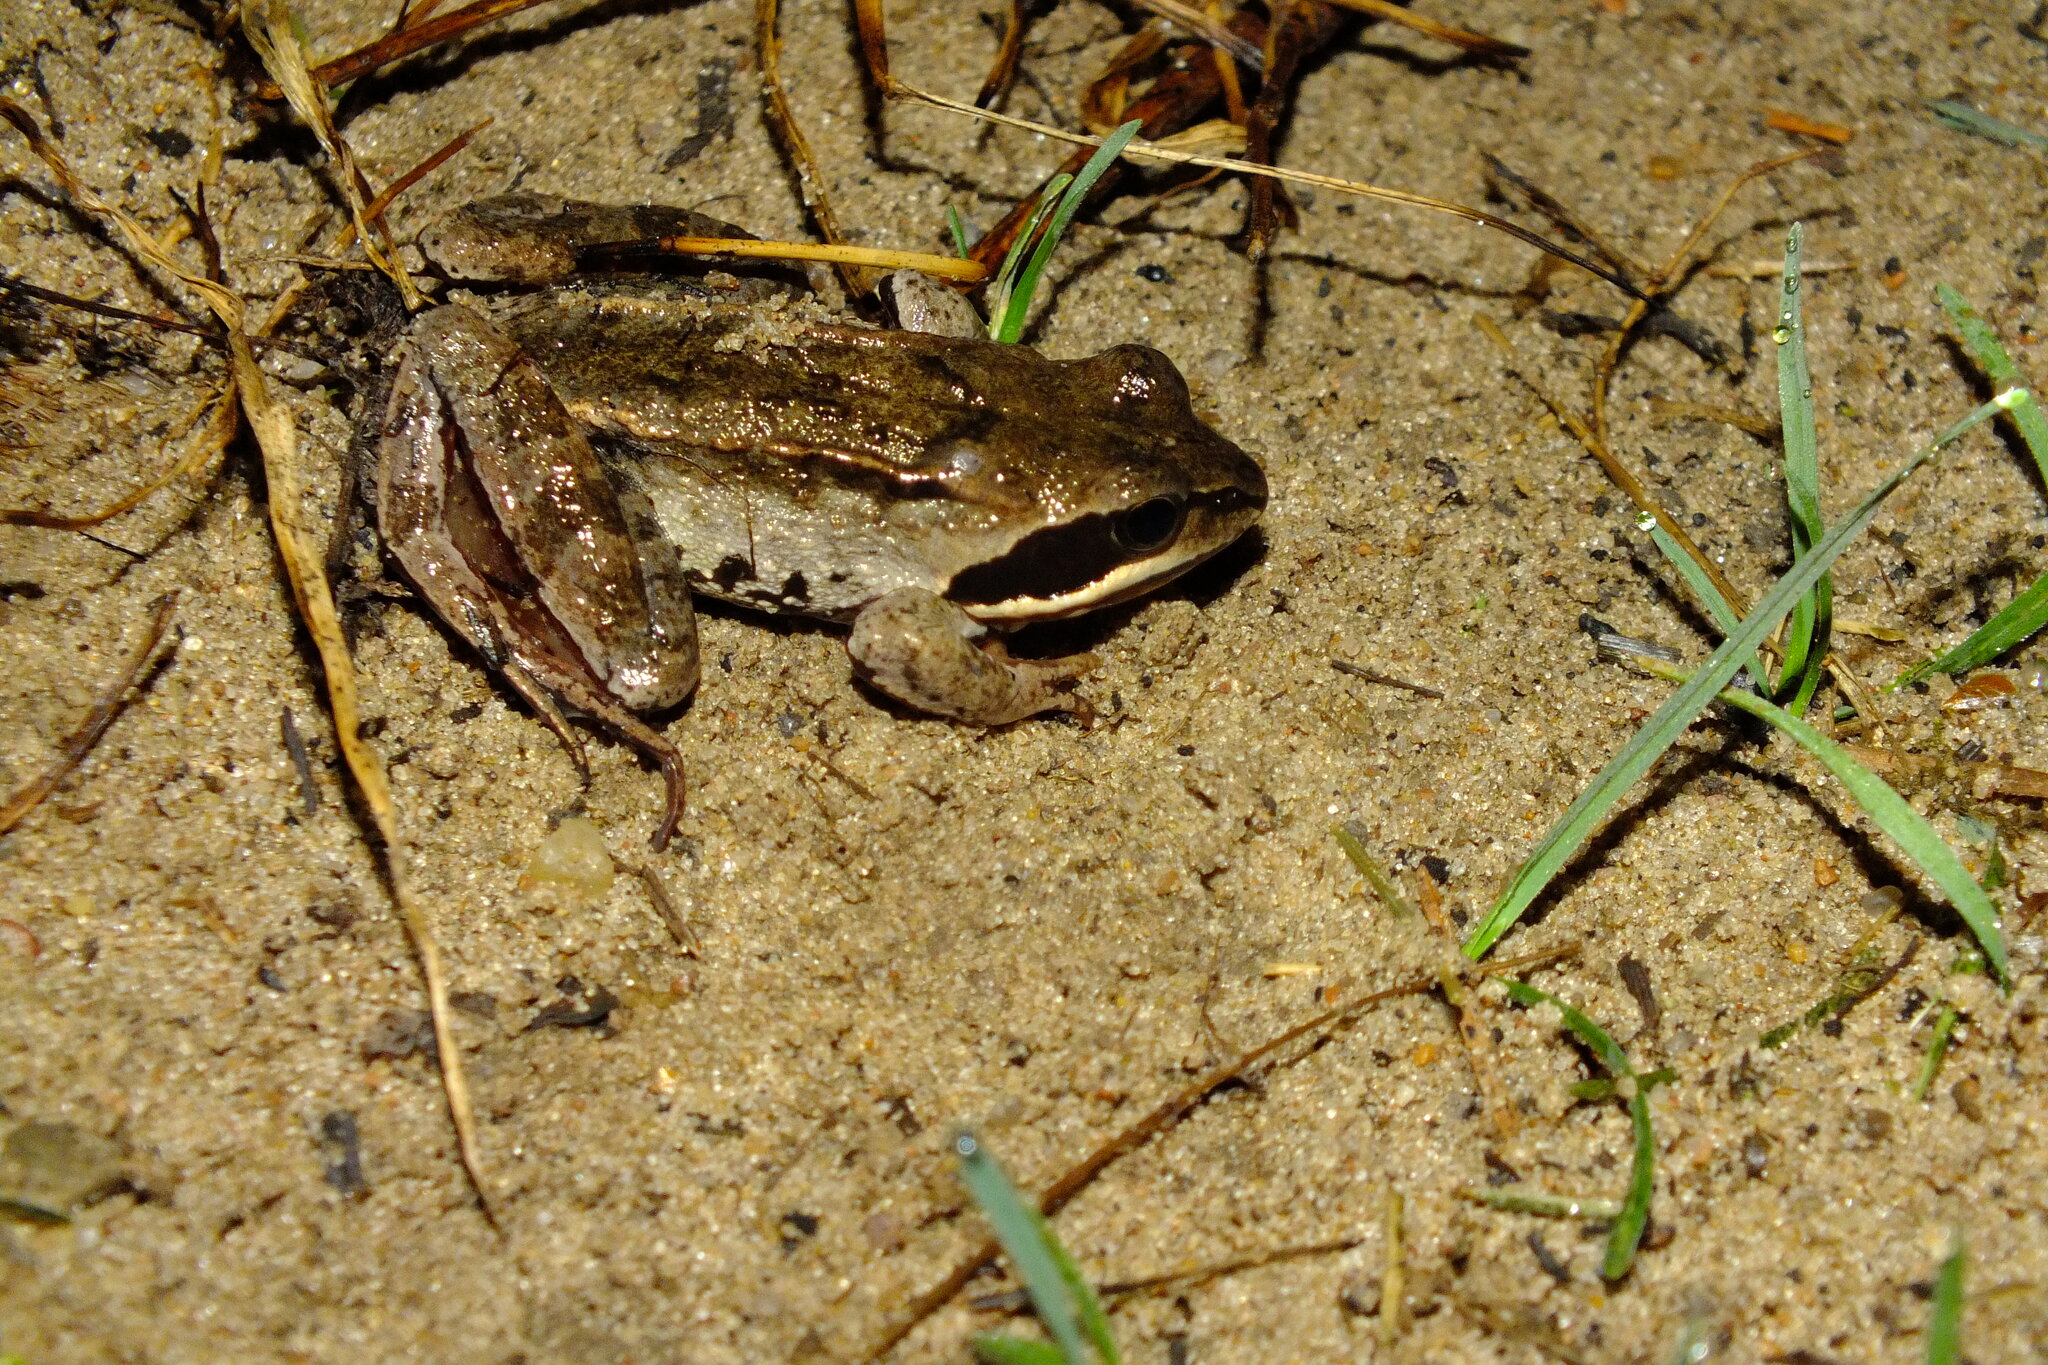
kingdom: Animalia
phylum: Chordata
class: Amphibia
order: Anura
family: Ranidae
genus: Rana
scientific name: Rana arvalis
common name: Moor frog
